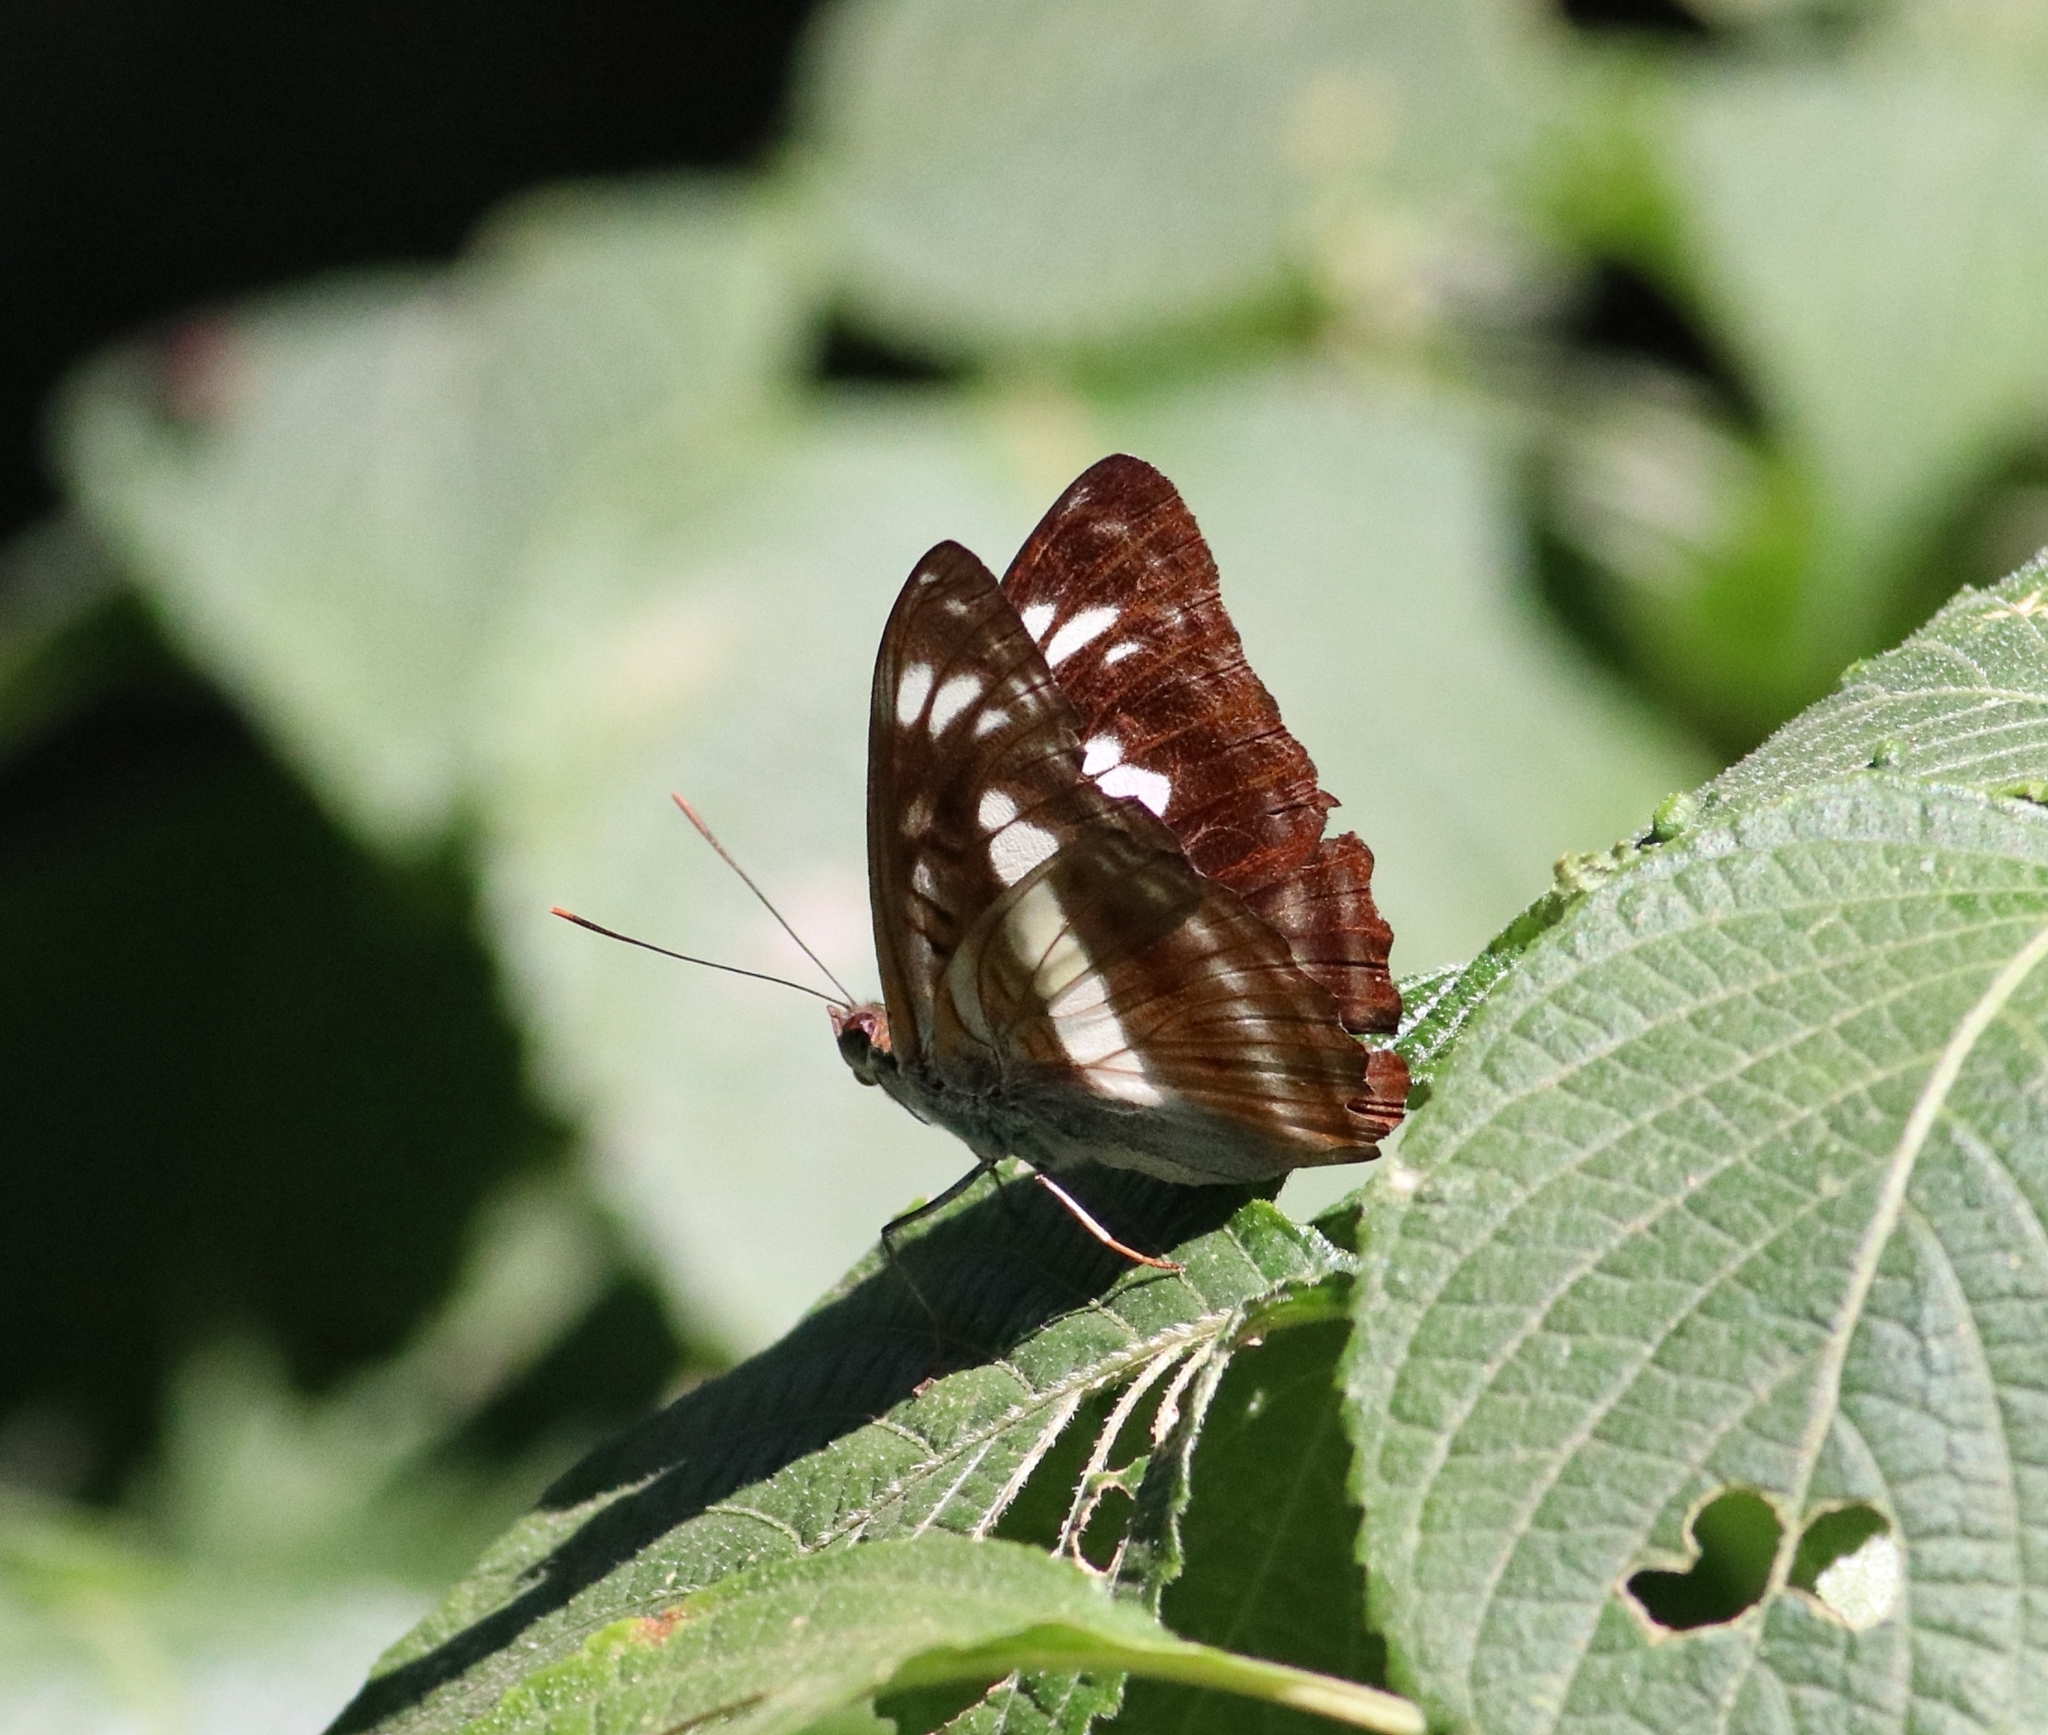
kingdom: Animalia
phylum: Arthropoda
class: Insecta
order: Lepidoptera
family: Nymphalidae
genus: Parathyma
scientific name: Parathyma selenophora
